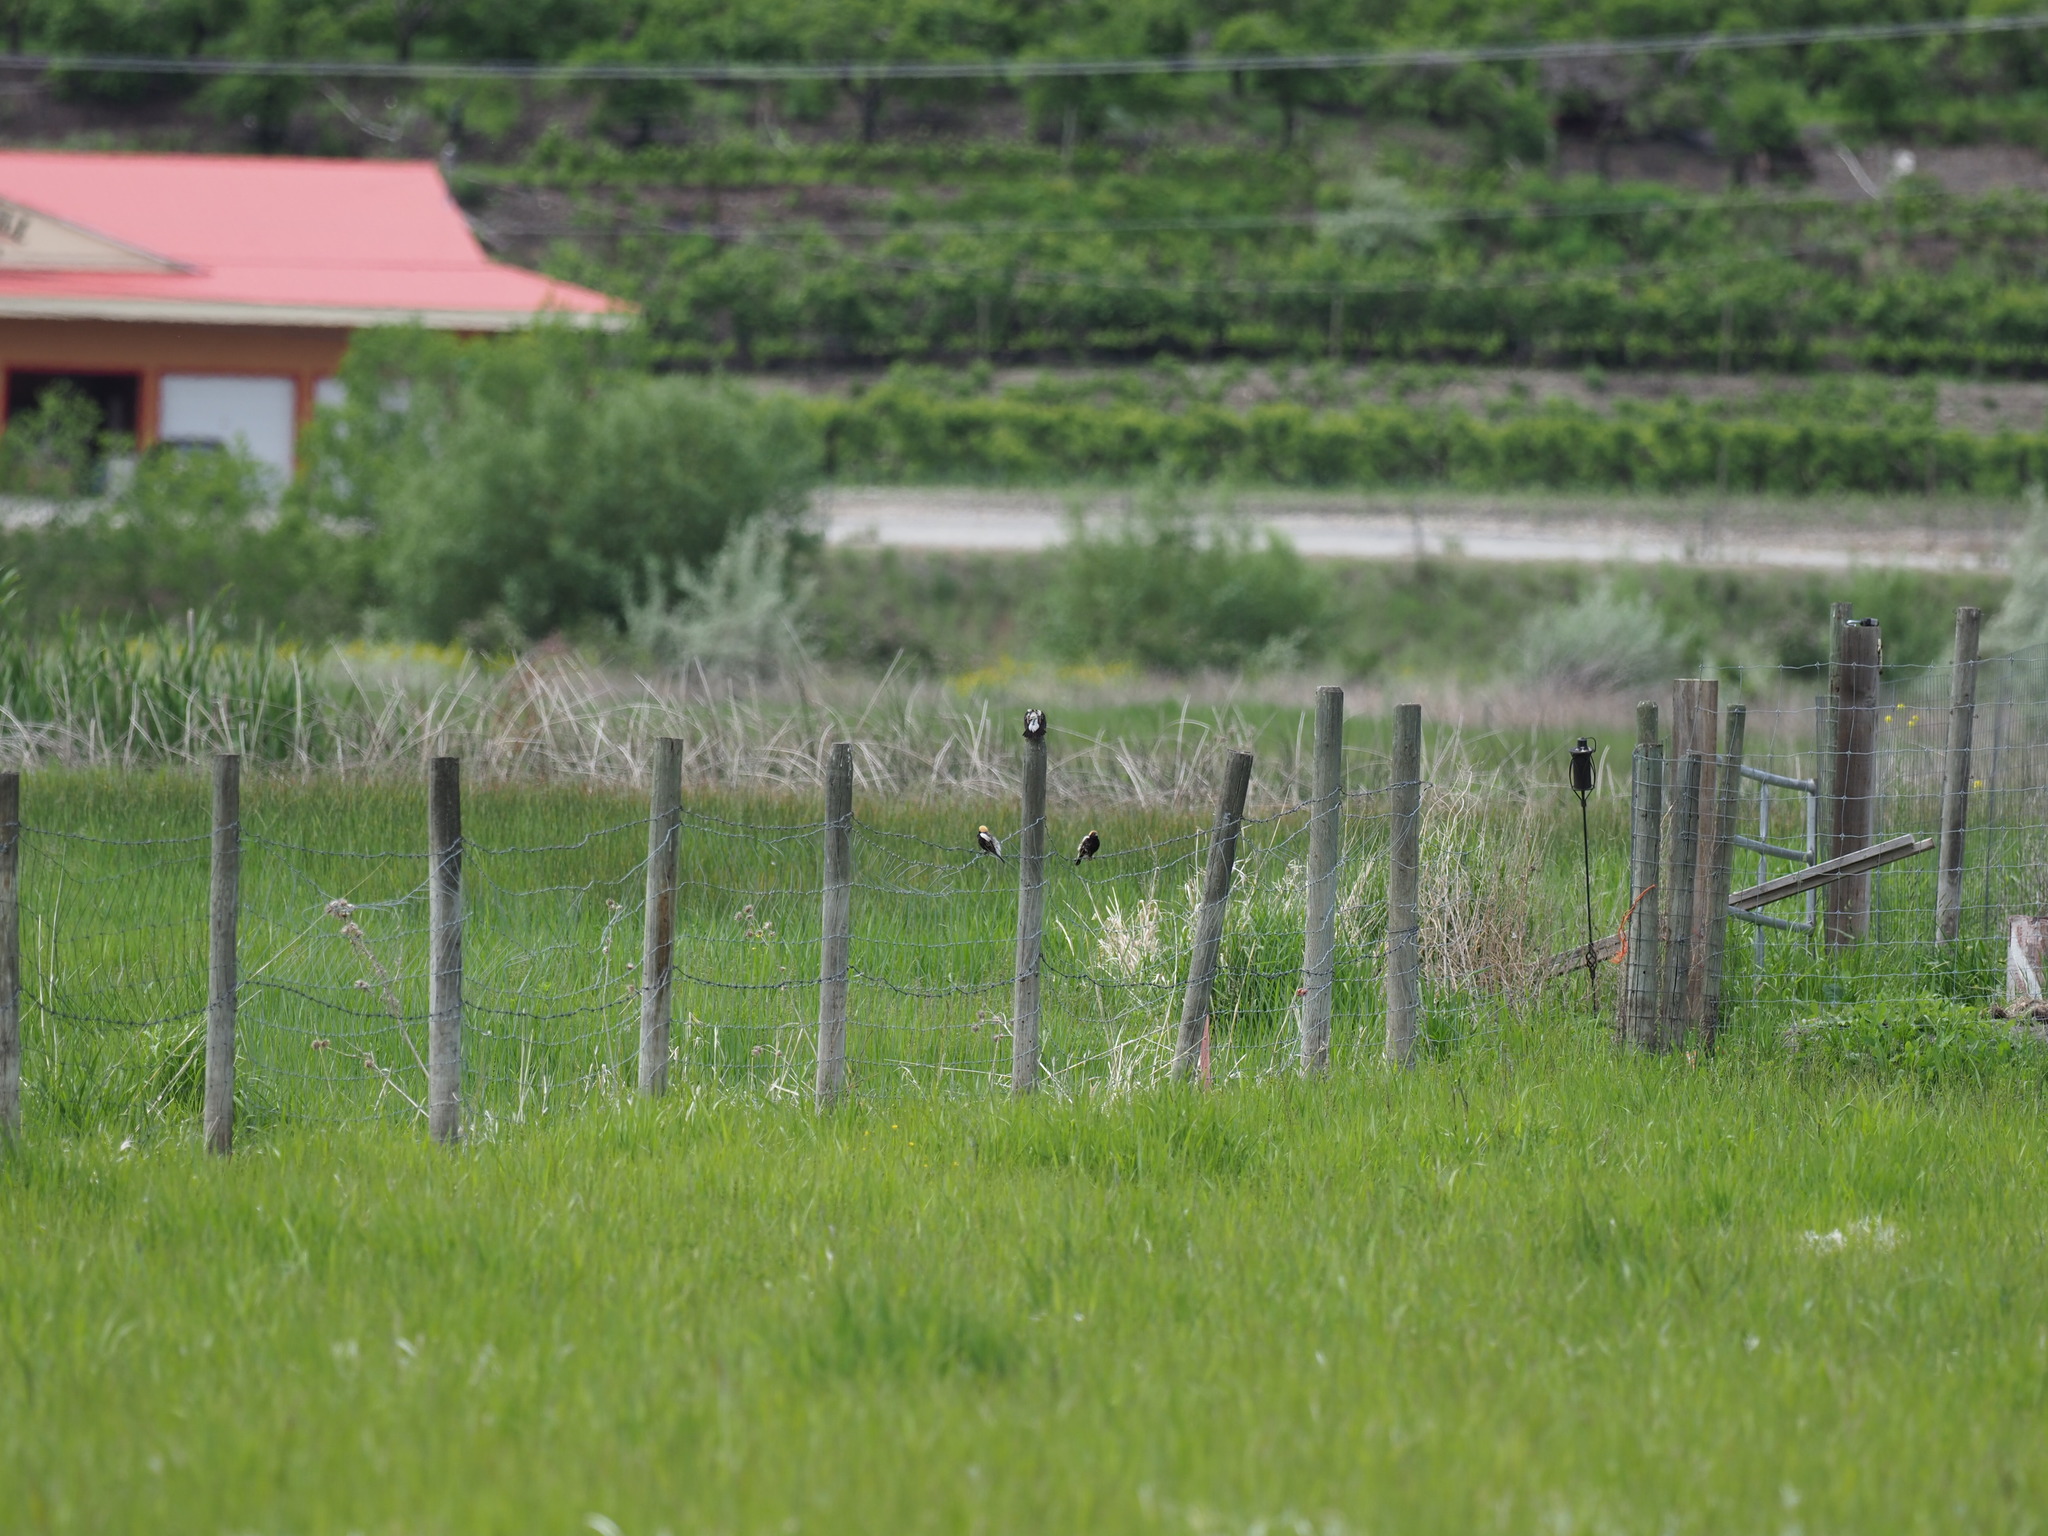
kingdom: Animalia
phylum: Chordata
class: Aves
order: Passeriformes
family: Icteridae
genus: Dolichonyx
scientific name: Dolichonyx oryzivorus
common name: Bobolink
